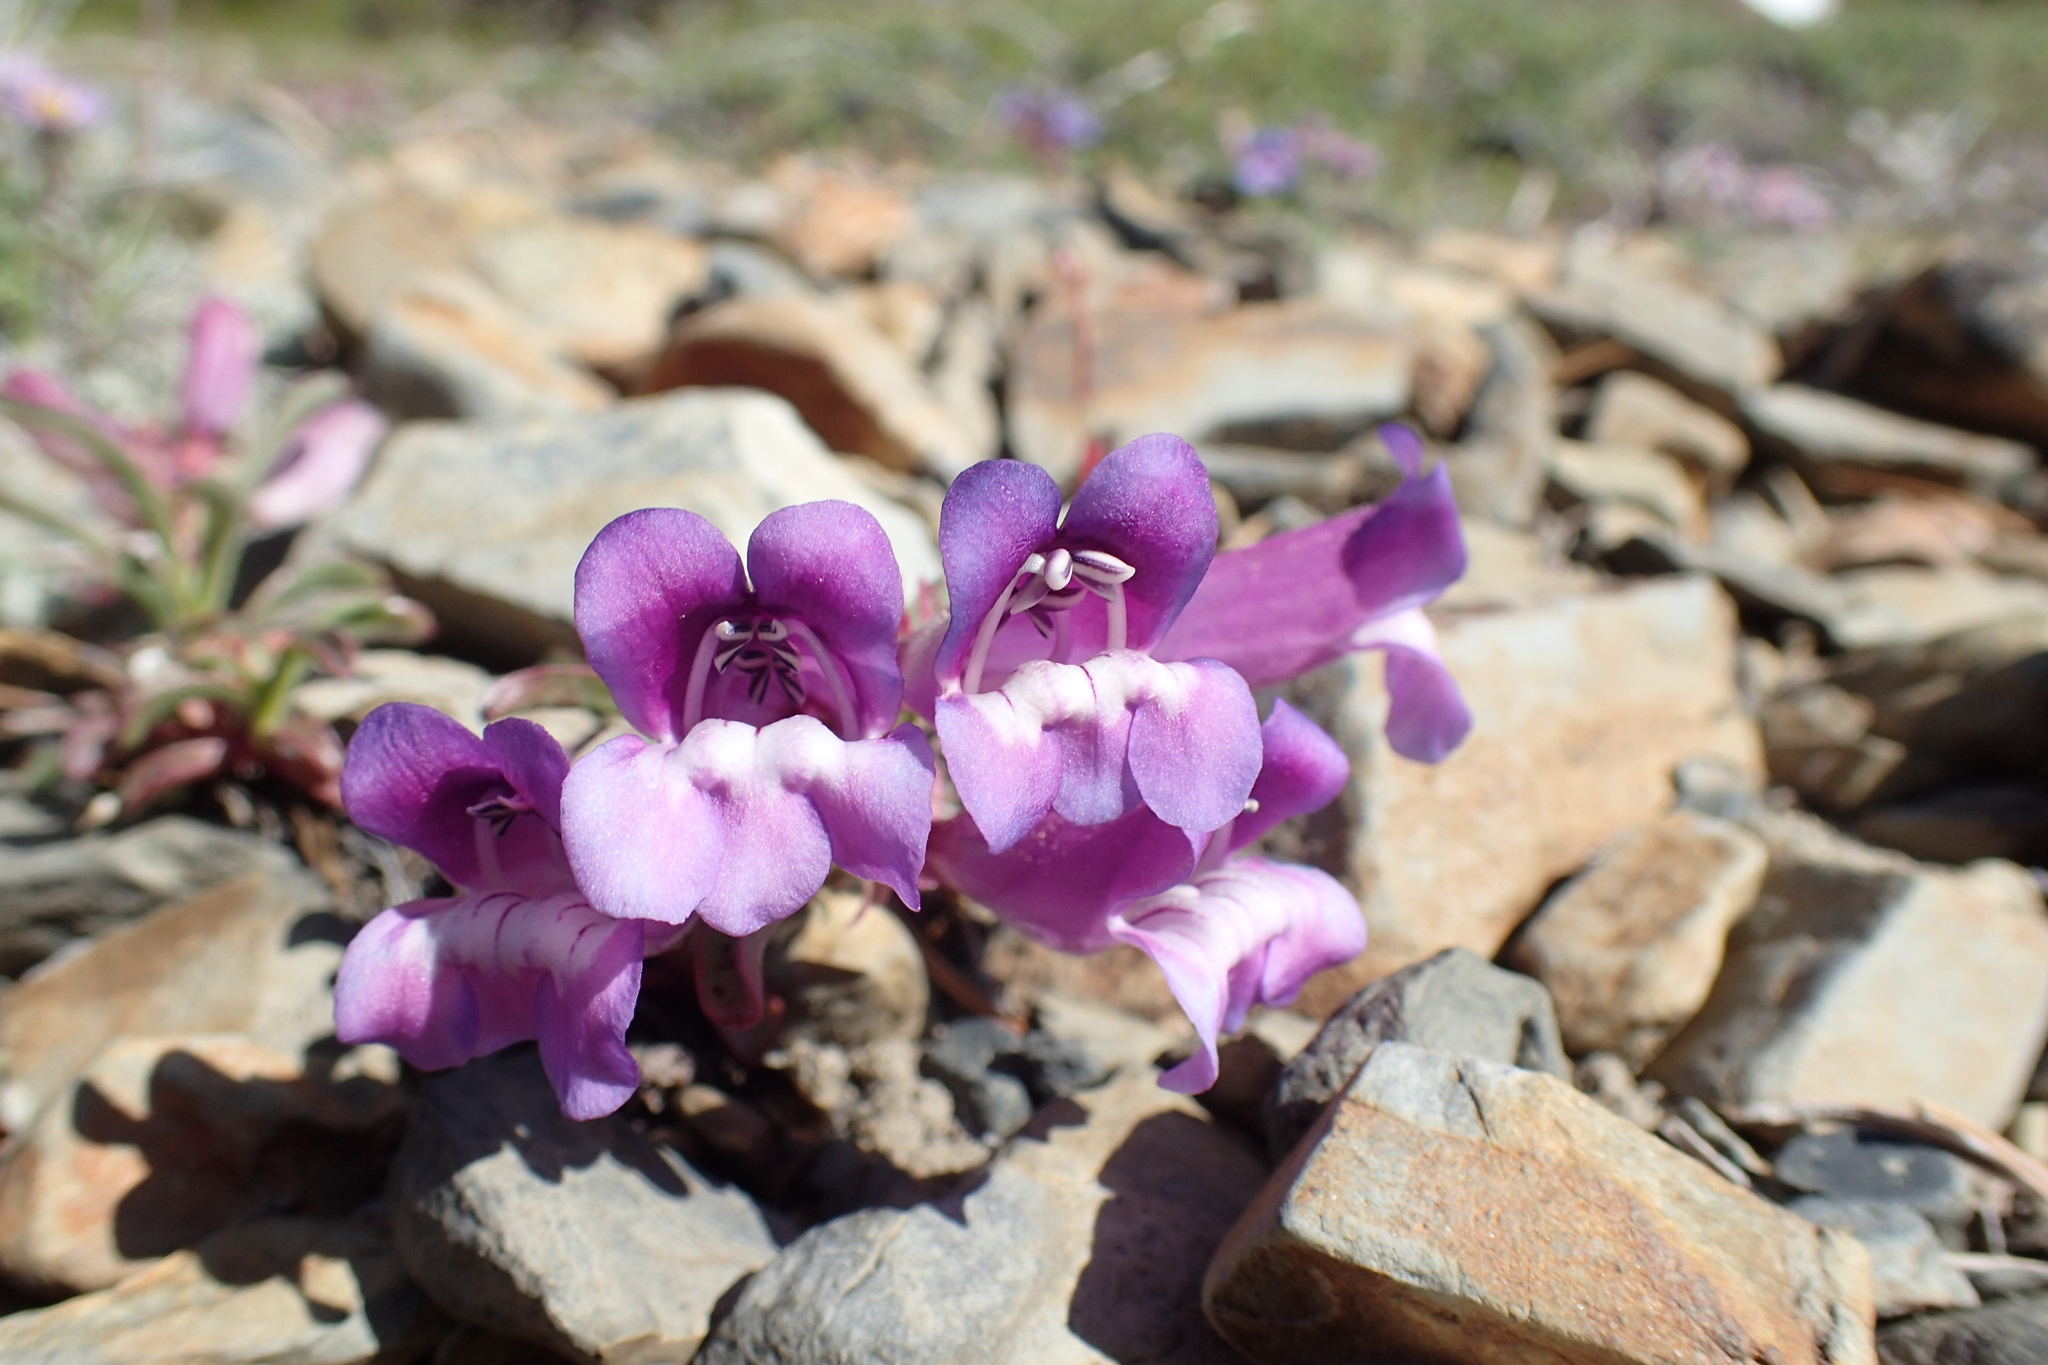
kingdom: Plantae
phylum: Tracheophyta
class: Magnoliopsida
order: Lamiales
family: Plantaginaceae
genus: Penstemon
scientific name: Penstemon speciosus
